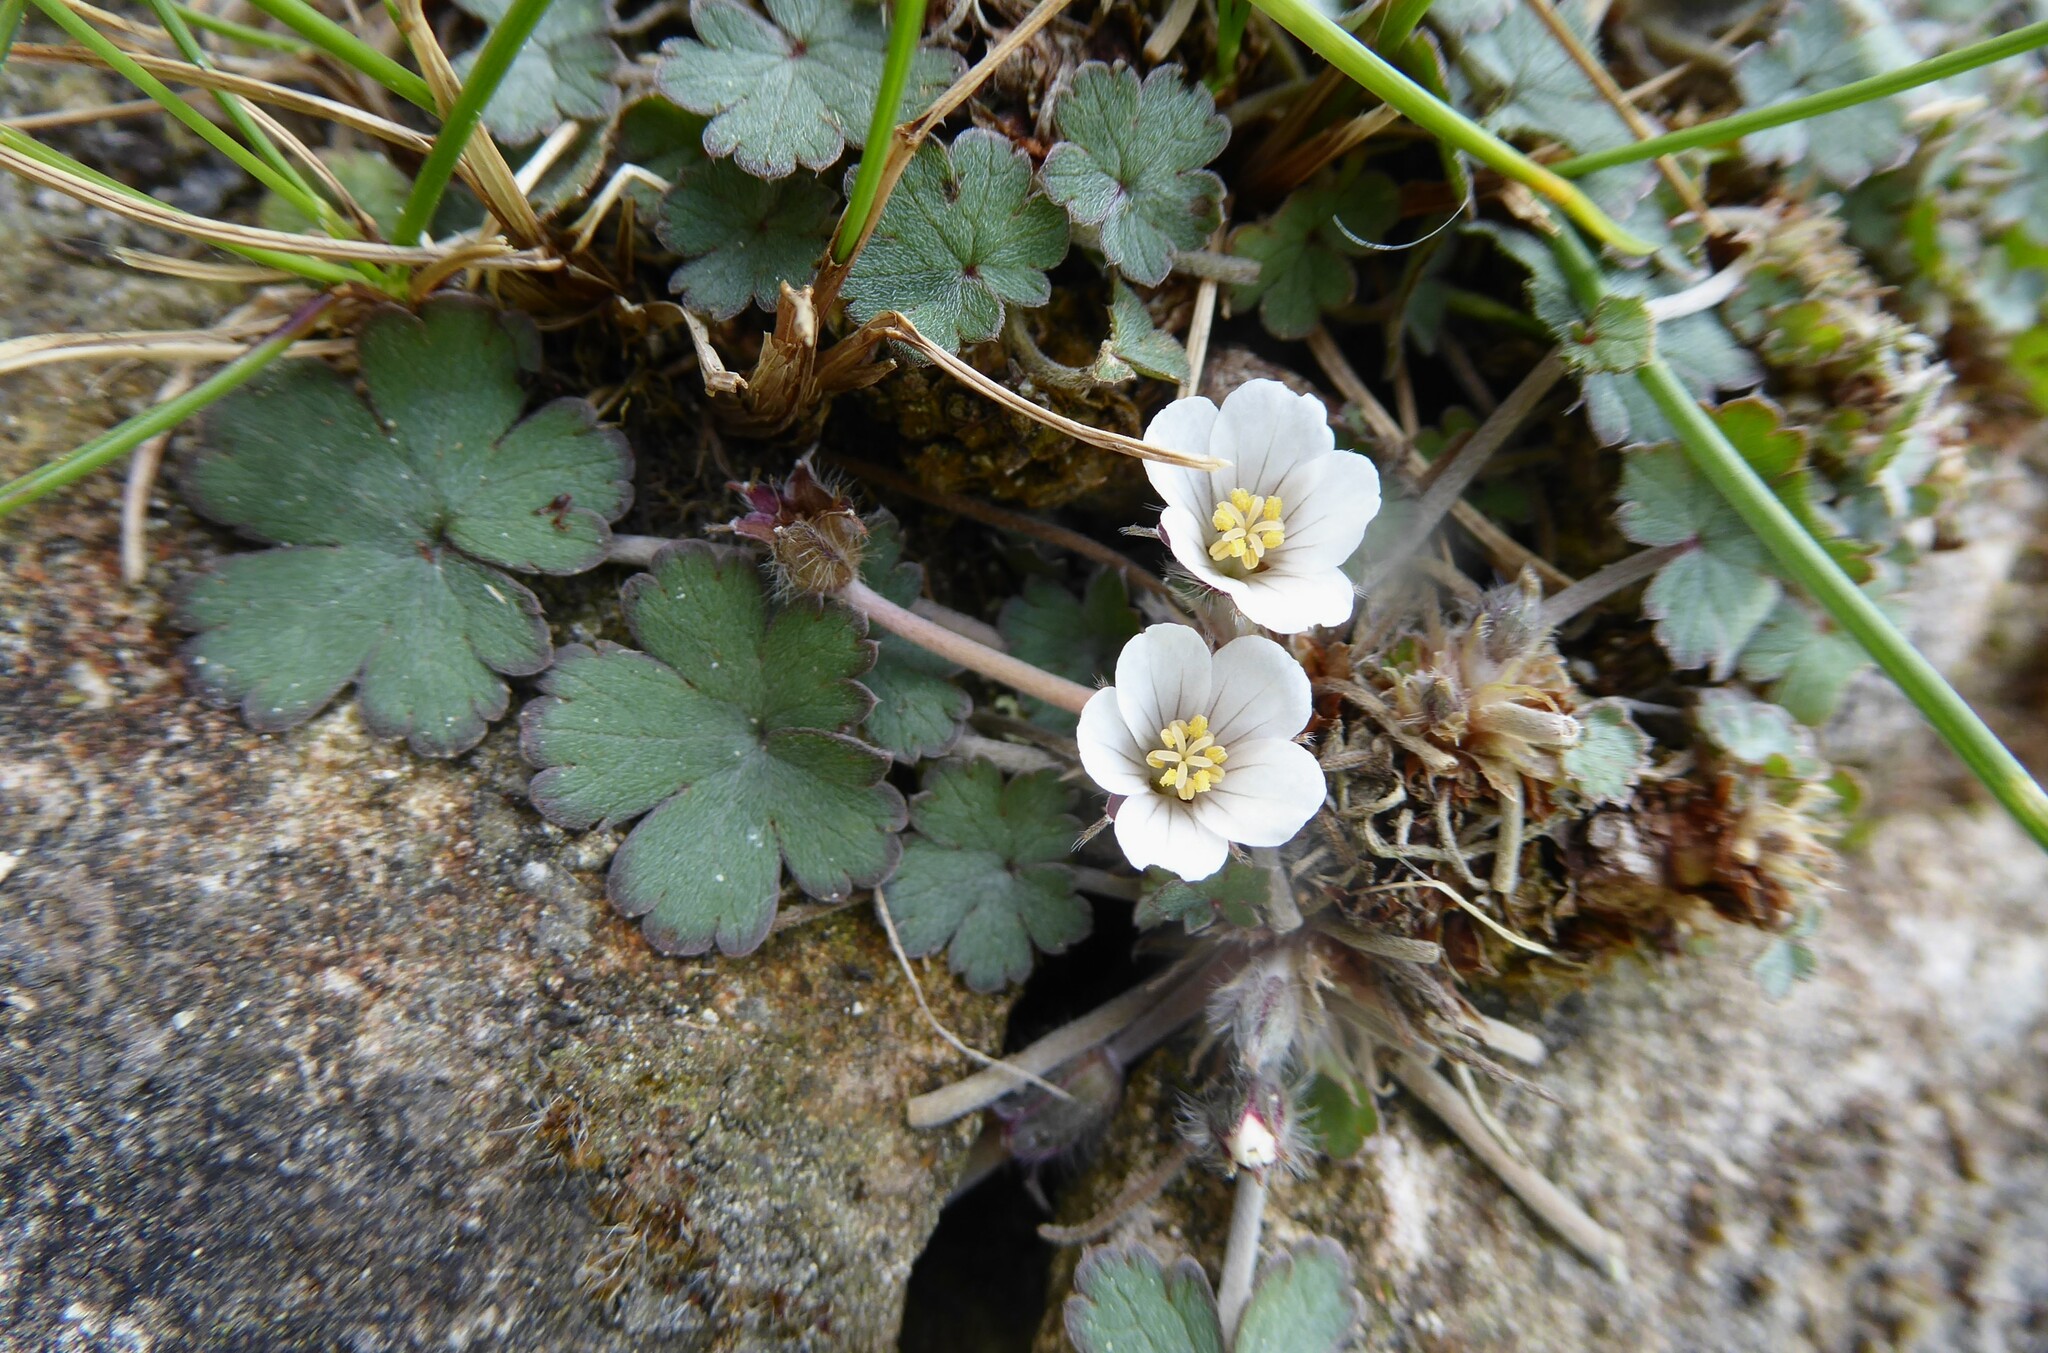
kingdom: Plantae
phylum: Tracheophyta
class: Magnoliopsida
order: Geraniales
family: Geraniaceae
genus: Geranium
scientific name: Geranium socolateum
